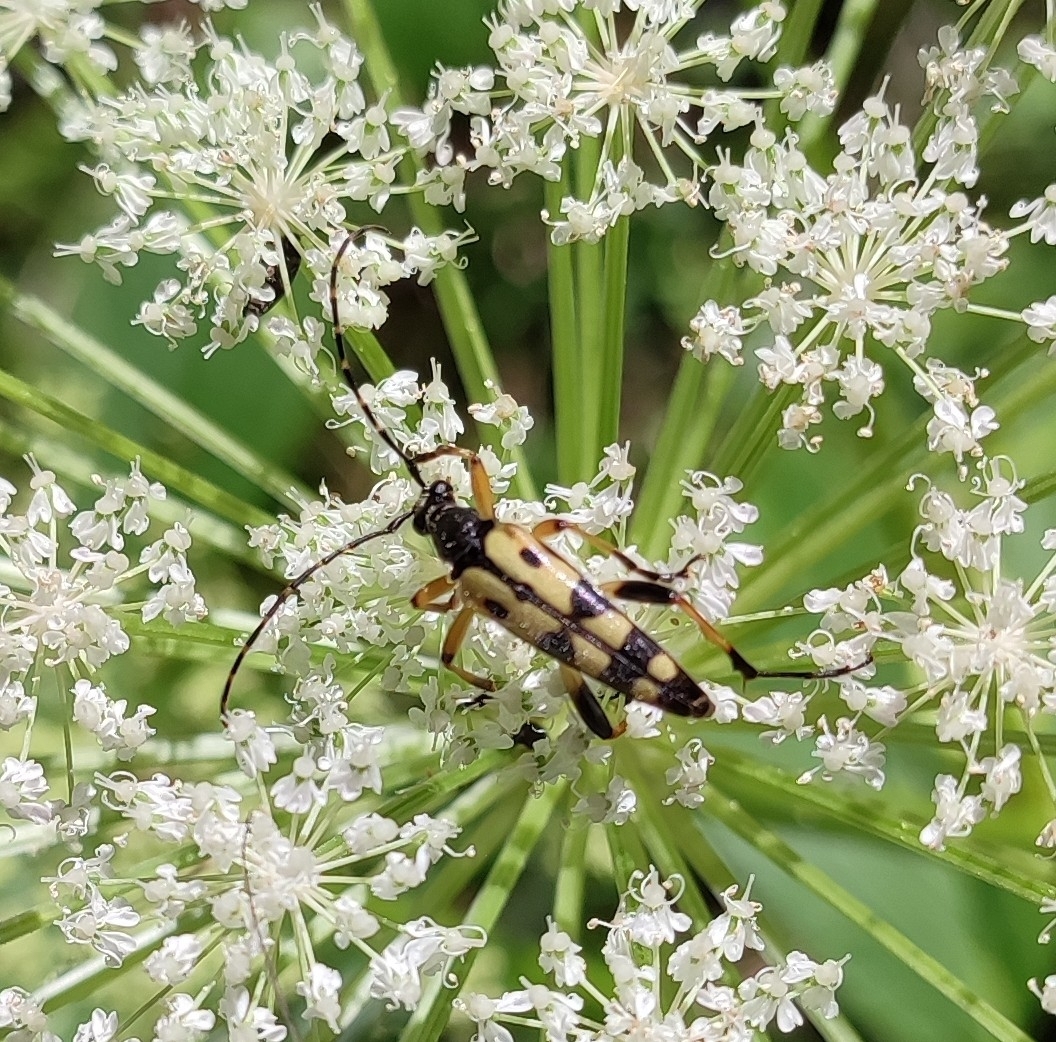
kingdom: Animalia
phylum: Arthropoda
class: Insecta
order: Coleoptera
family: Cerambycidae
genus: Rutpela
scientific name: Rutpela maculata
